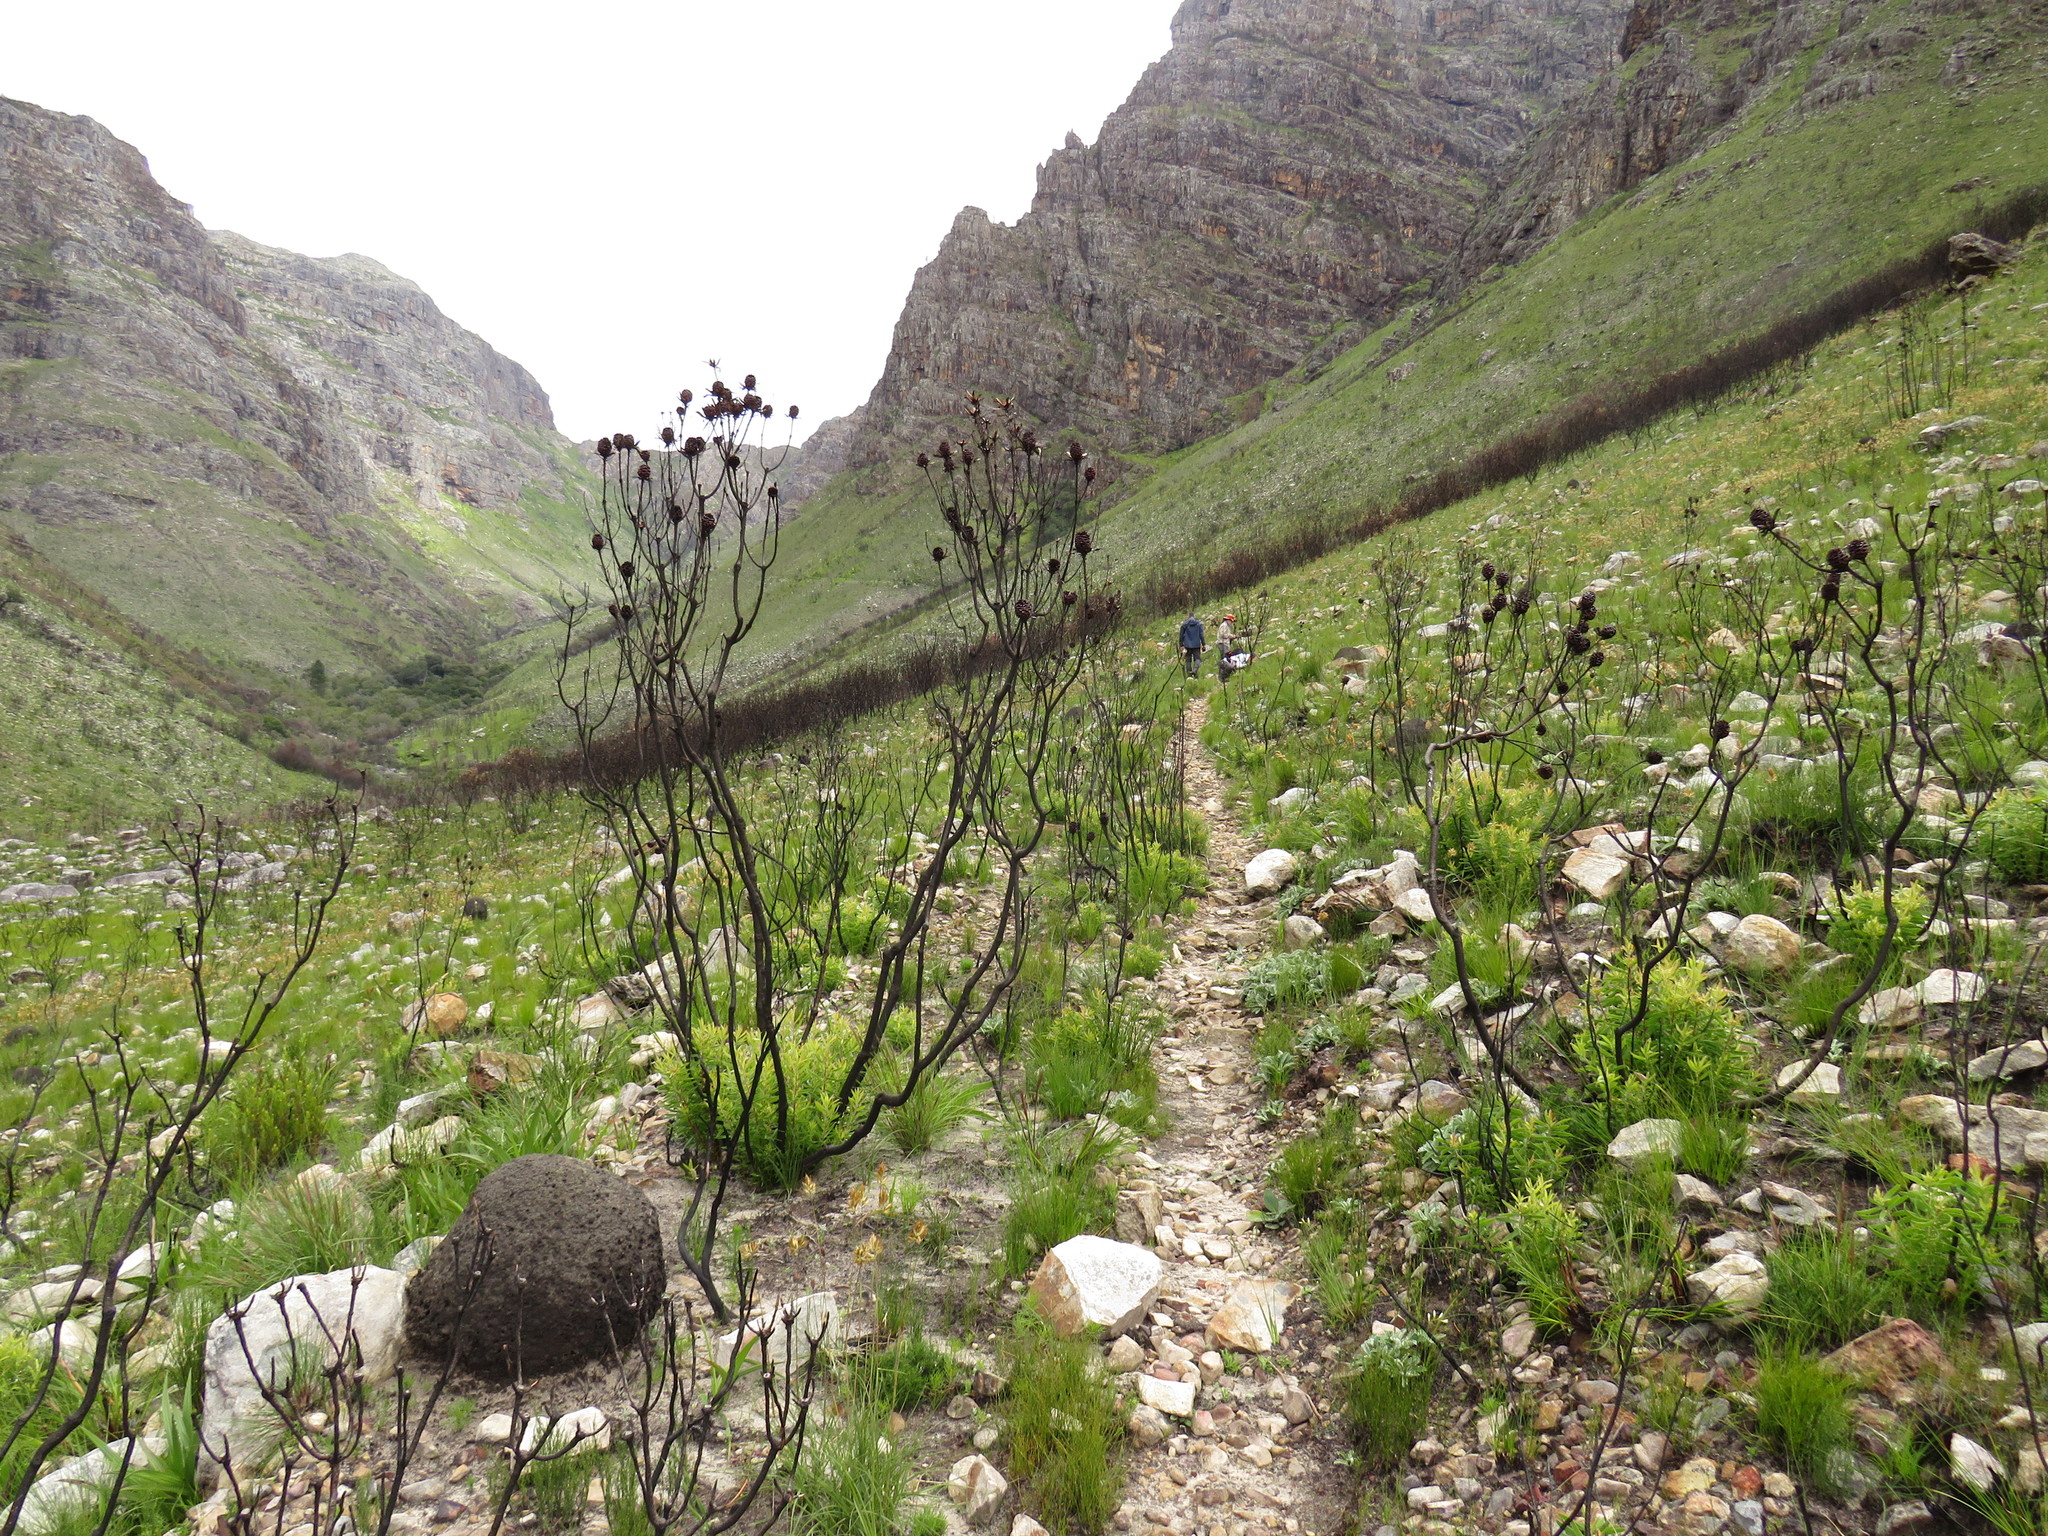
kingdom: Plantae
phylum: Tracheophyta
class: Magnoliopsida
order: Proteales
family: Proteaceae
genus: Leucadendron
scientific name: Leucadendron spissifolium
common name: Spear-leaf conebush
